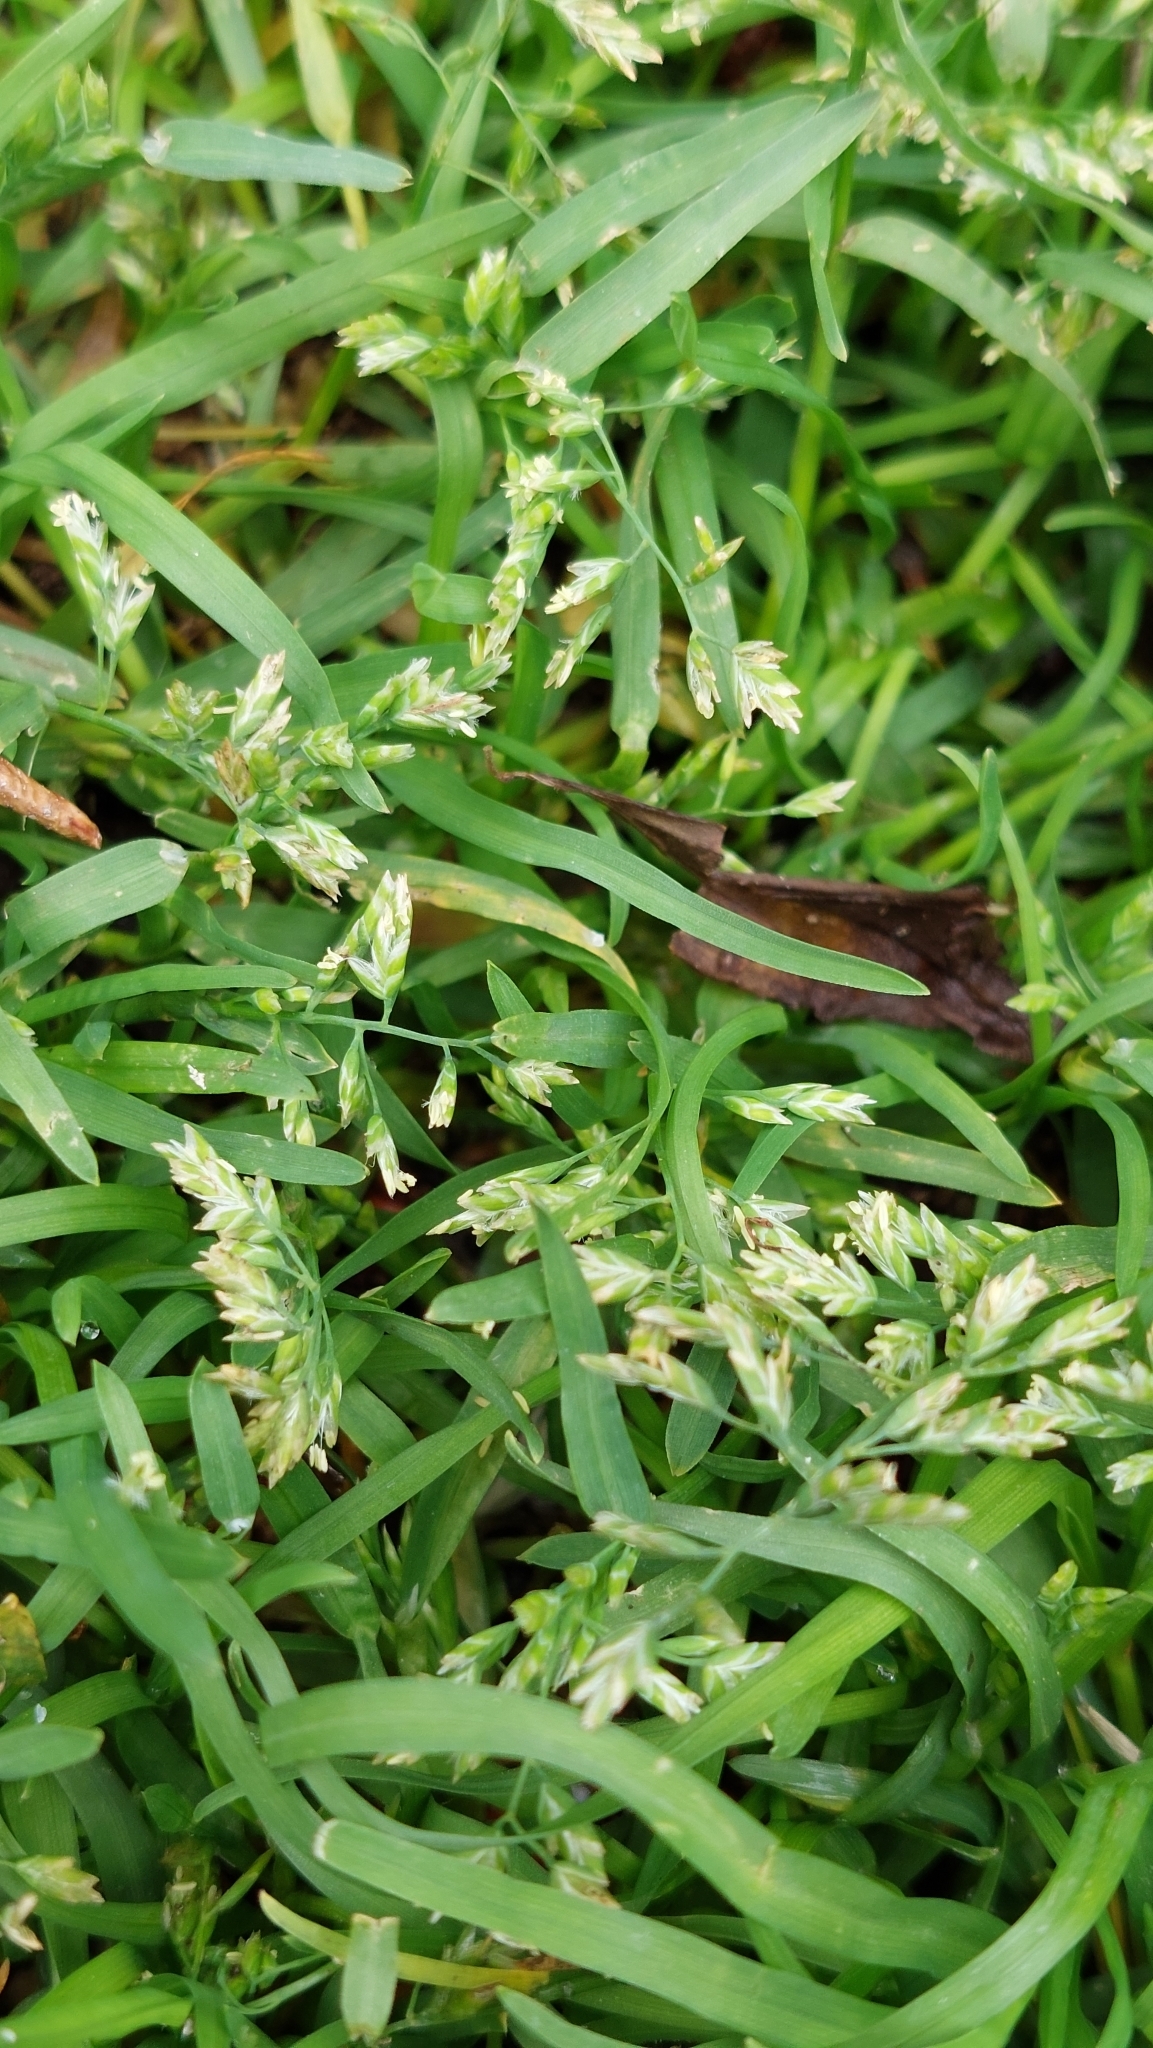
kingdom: Plantae
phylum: Tracheophyta
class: Liliopsida
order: Poales
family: Poaceae
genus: Poa
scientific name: Poa annua
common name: Annual bluegrass
